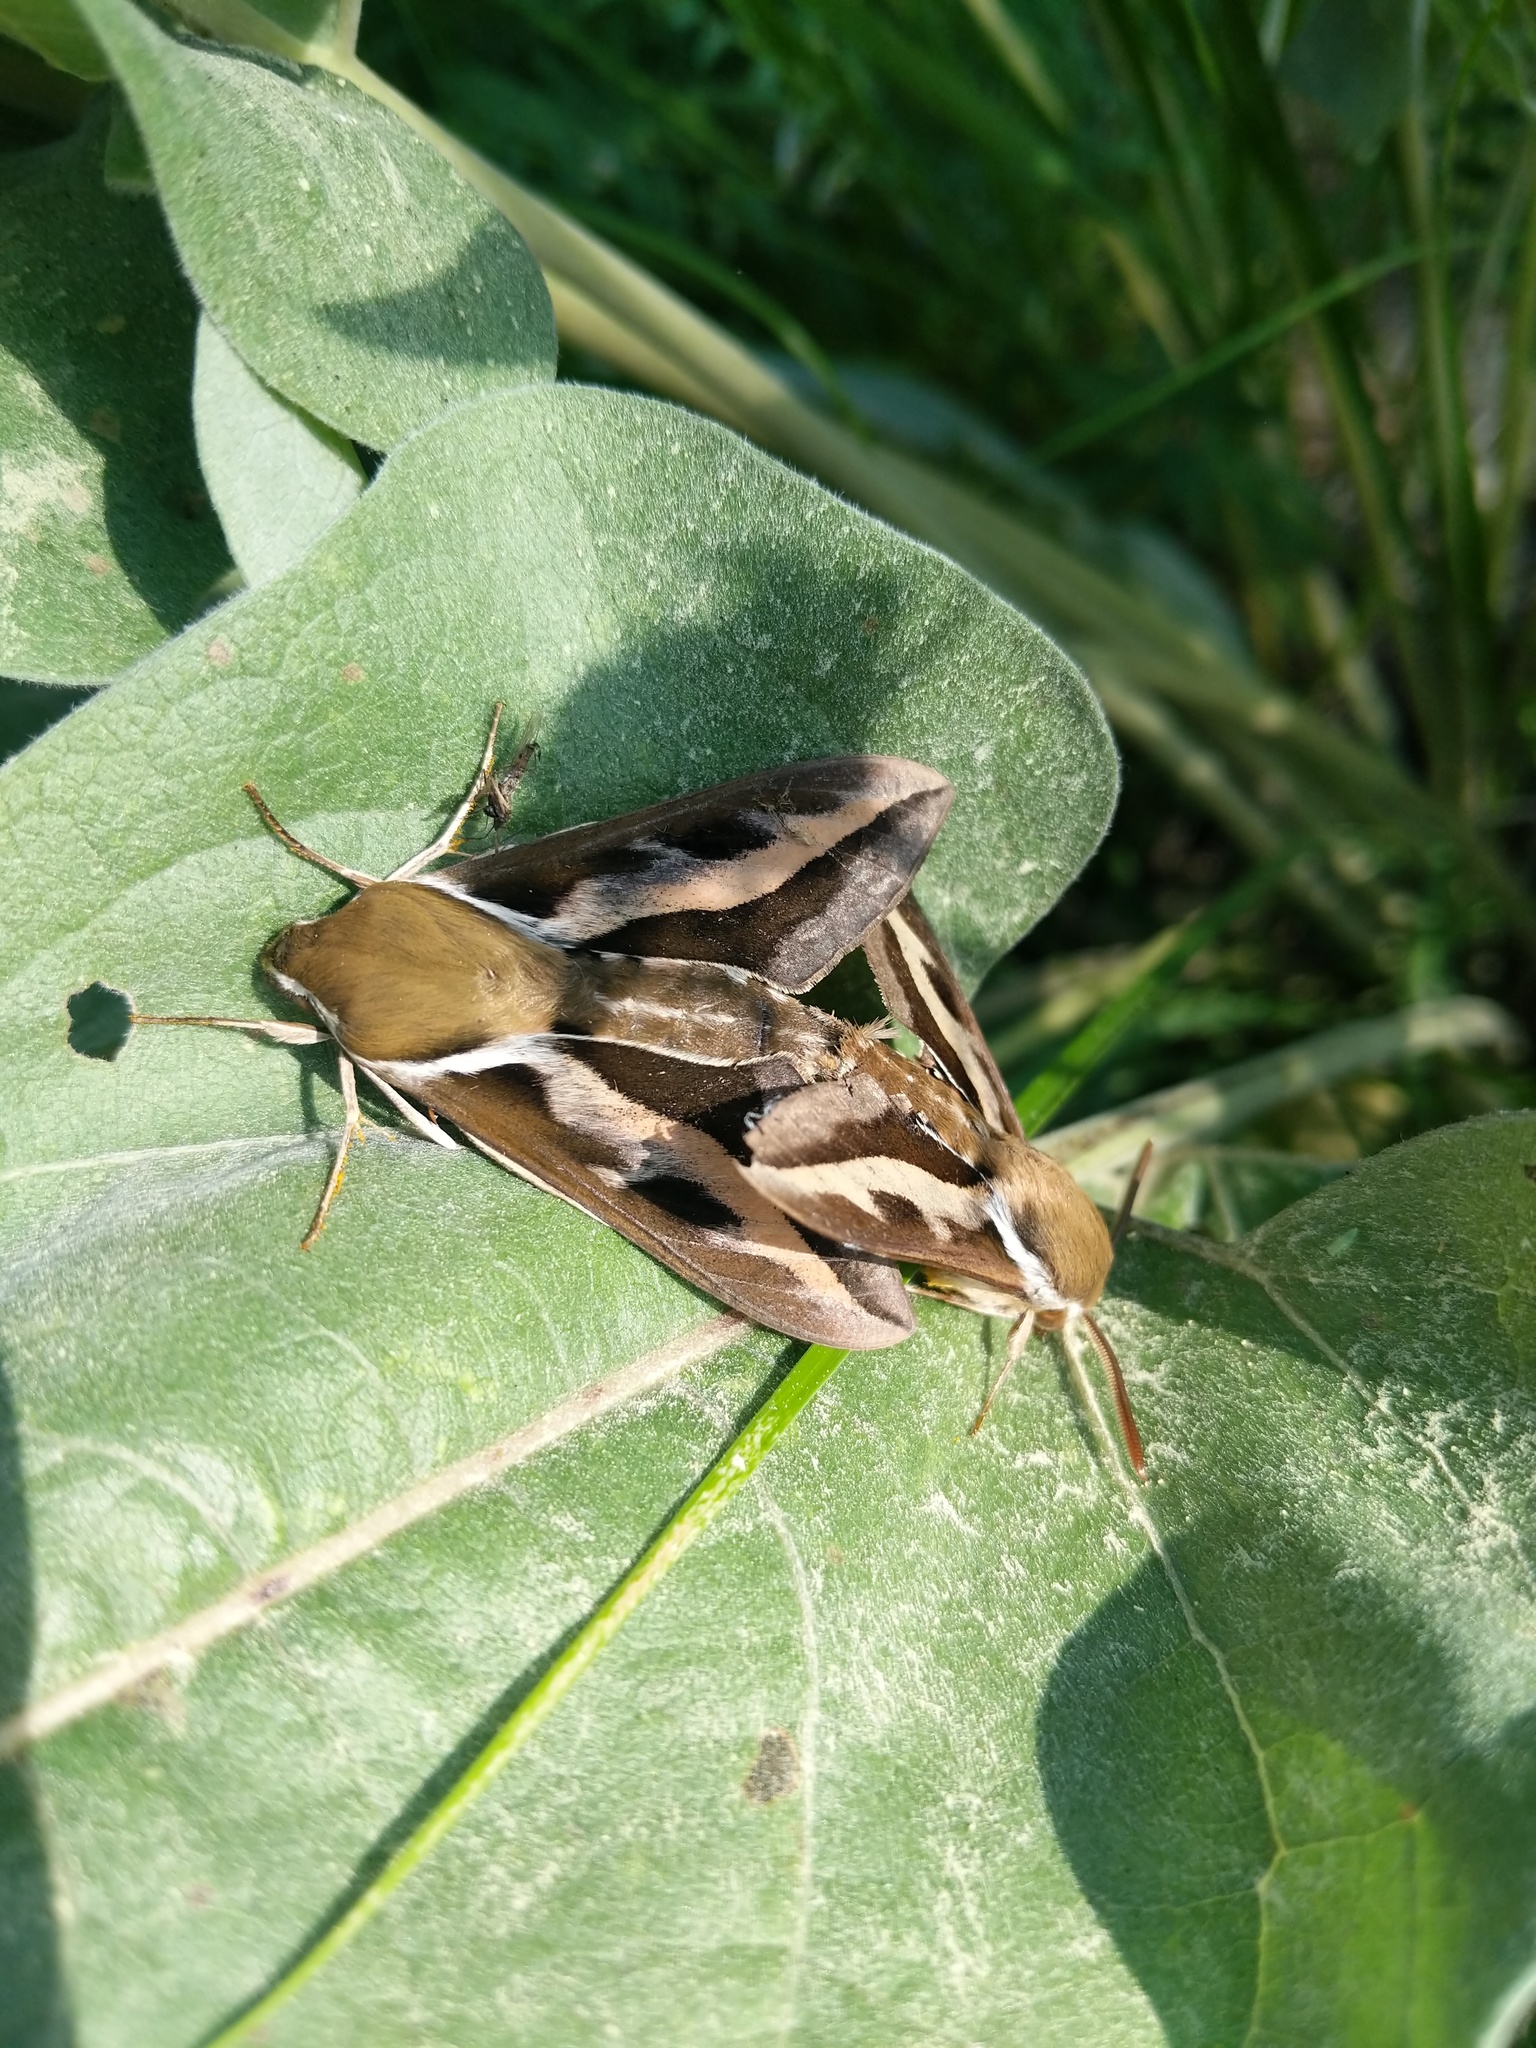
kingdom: Animalia
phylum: Arthropoda
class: Insecta
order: Lepidoptera
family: Sphingidae
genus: Hyles
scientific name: Hyles gallii
